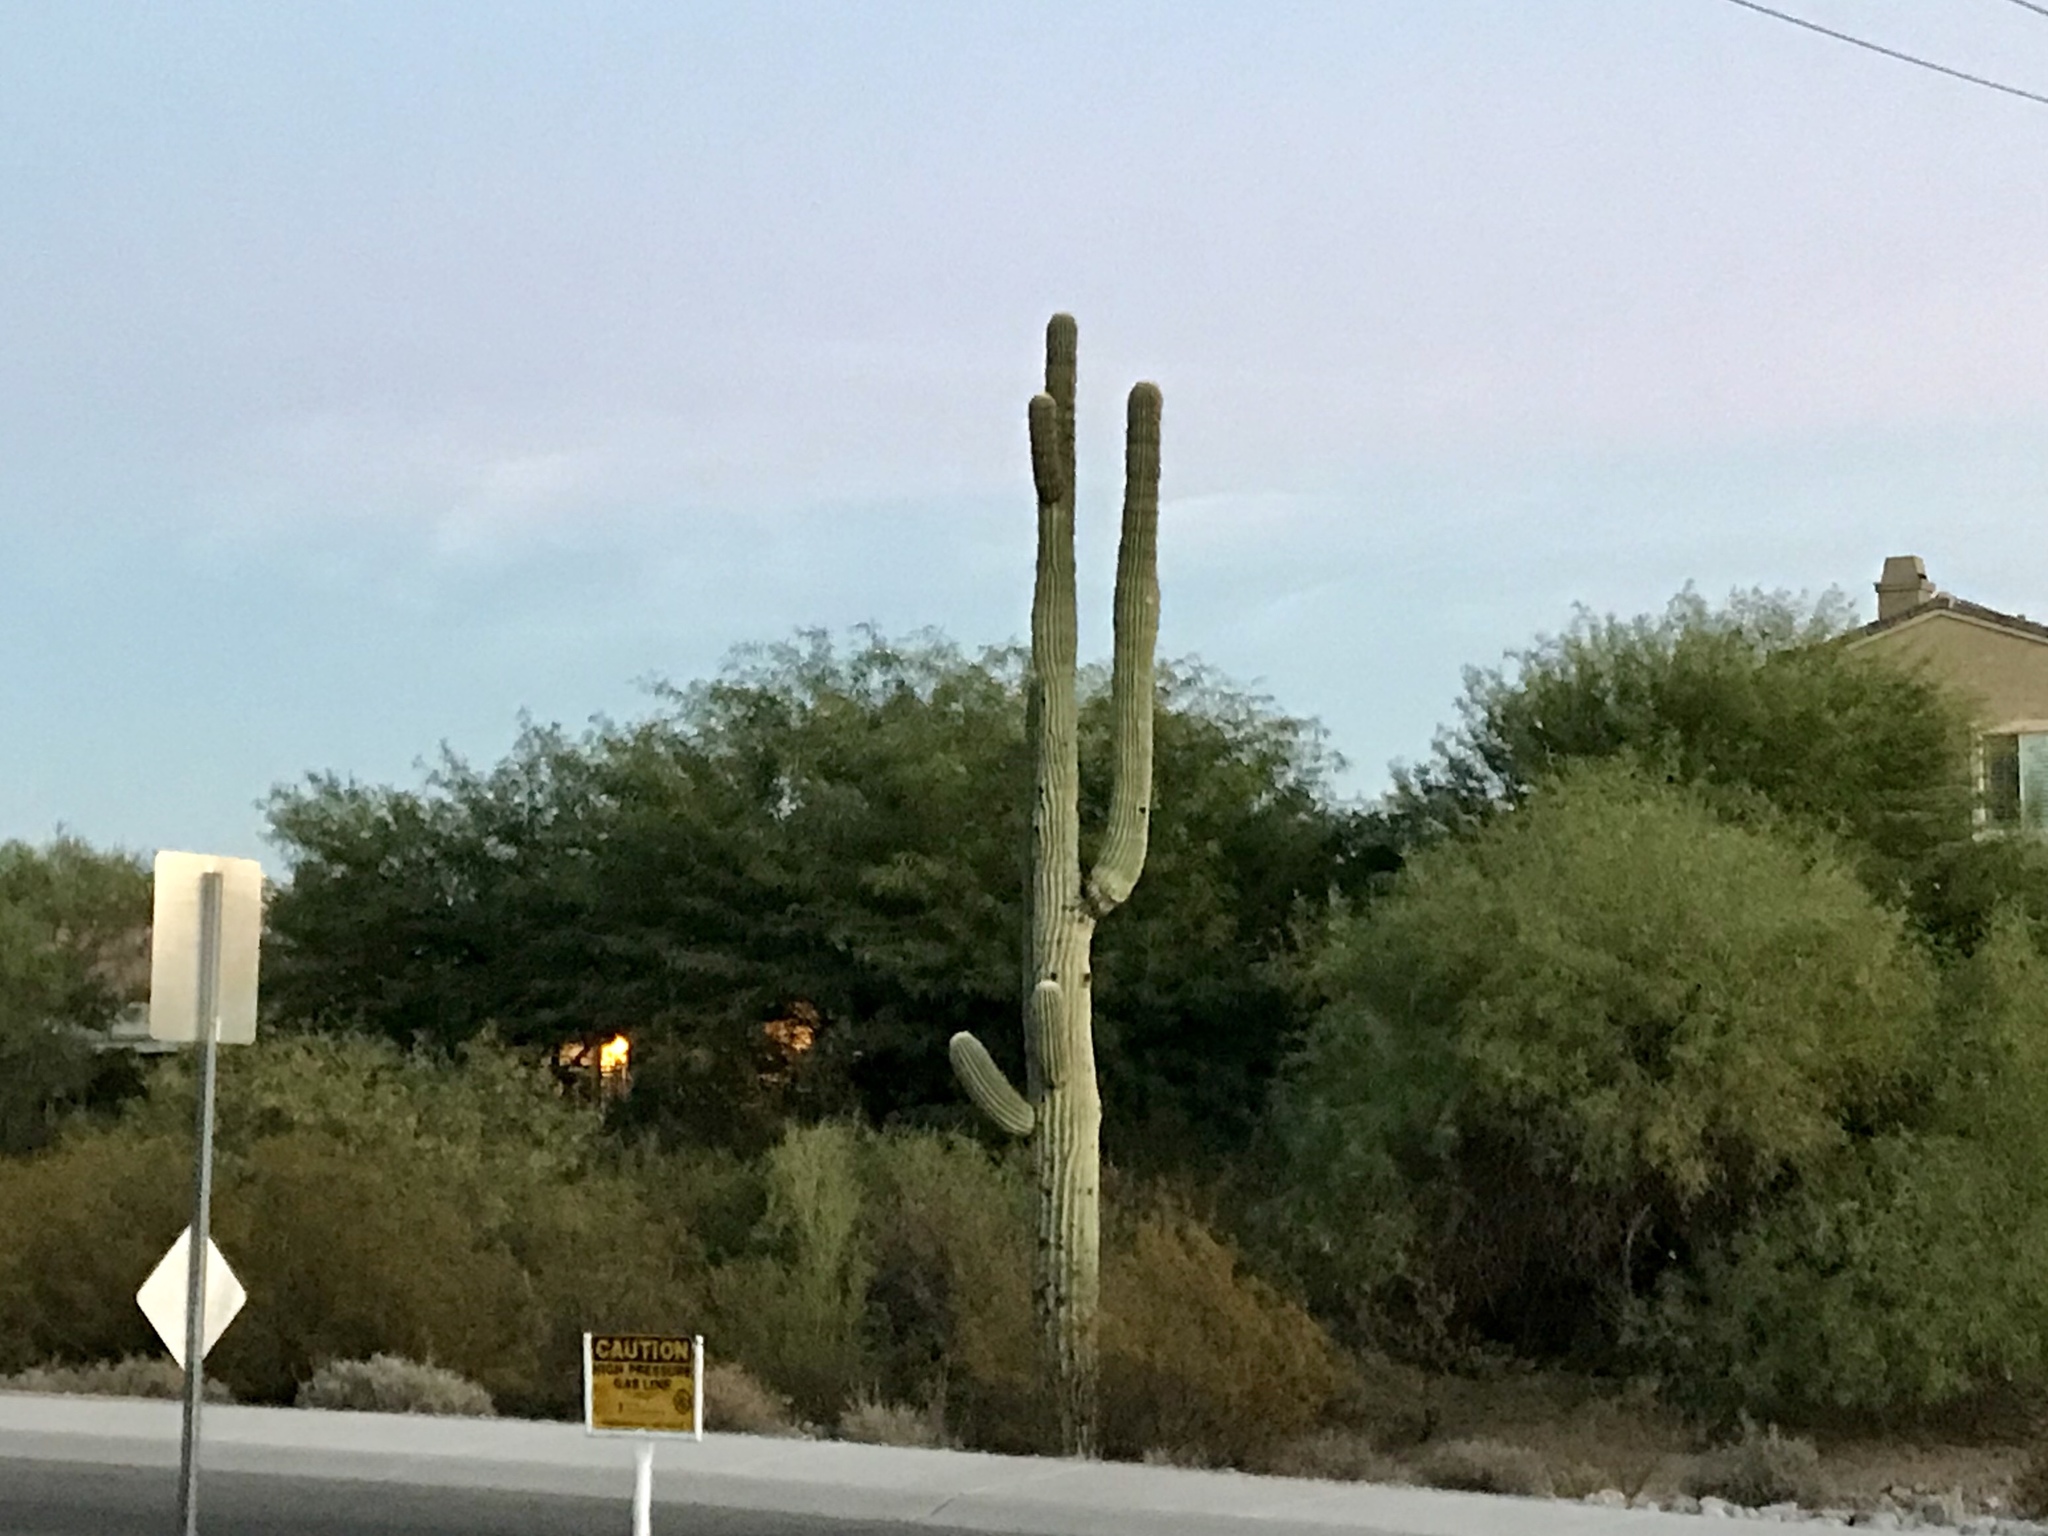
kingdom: Plantae
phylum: Tracheophyta
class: Magnoliopsida
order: Caryophyllales
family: Cactaceae
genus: Carnegiea
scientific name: Carnegiea gigantea
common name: Saguaro
